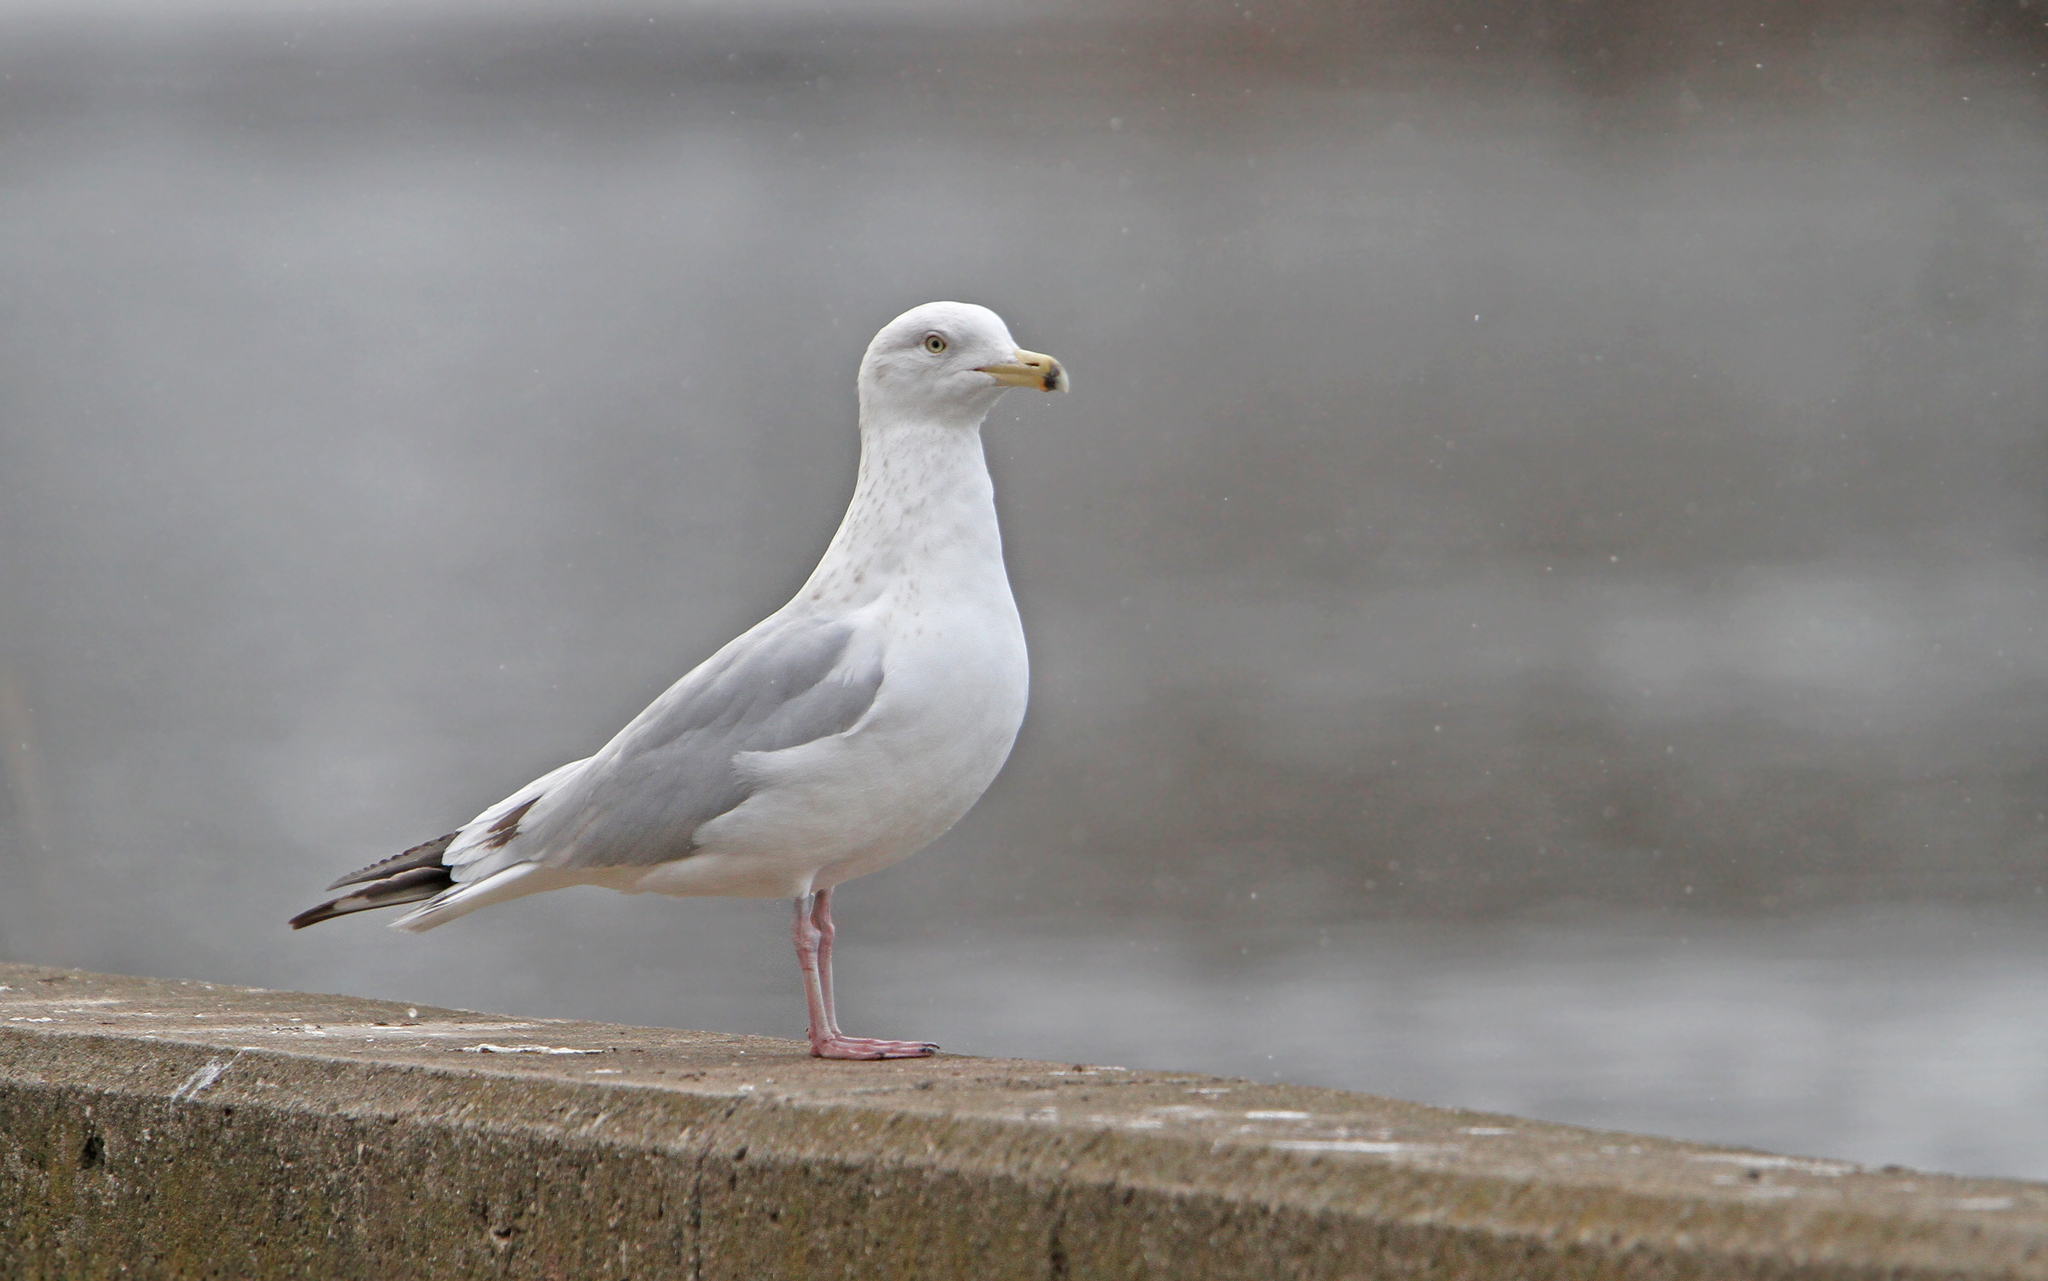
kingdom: Animalia
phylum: Chordata
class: Aves
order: Charadriiformes
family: Laridae
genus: Larus
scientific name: Larus delawarensis
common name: Ring-billed gull
